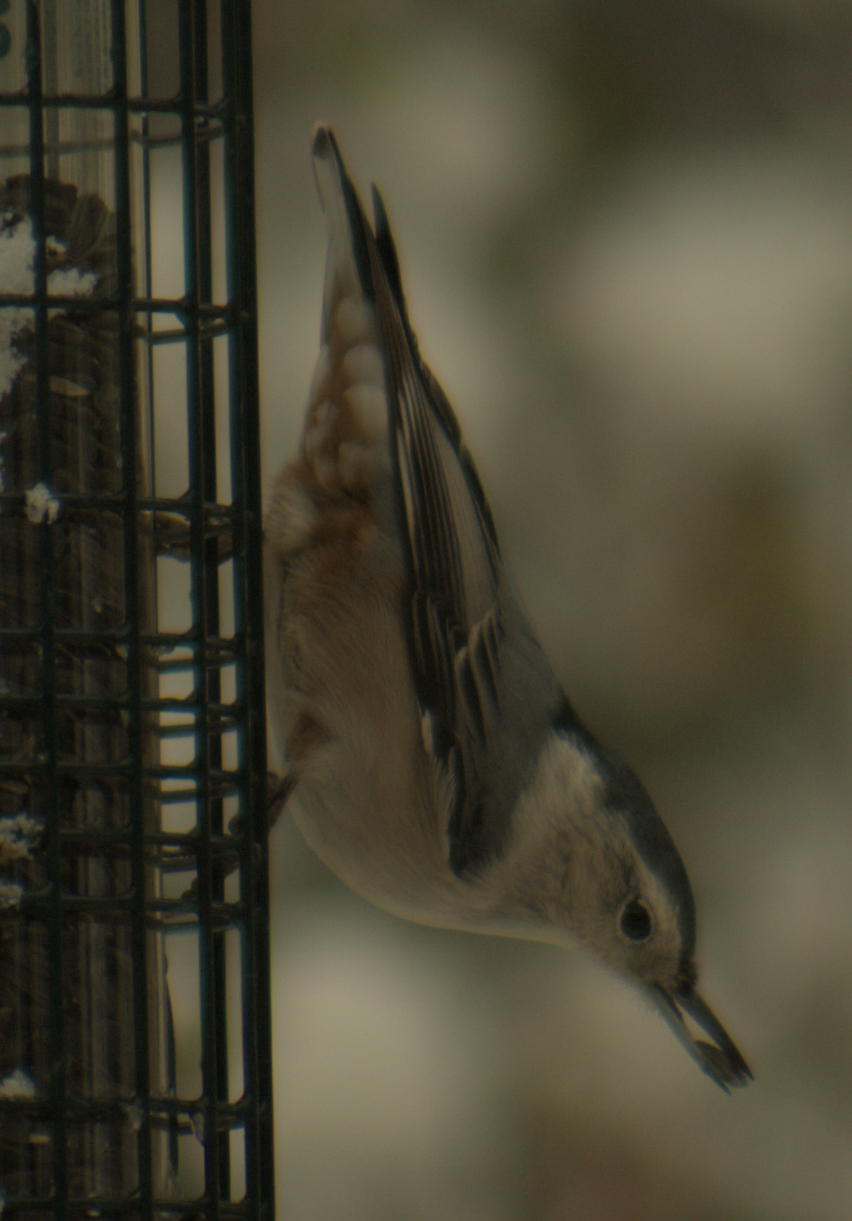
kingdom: Animalia
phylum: Chordata
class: Aves
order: Passeriformes
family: Sittidae
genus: Sitta
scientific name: Sitta carolinensis
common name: White-breasted nuthatch
